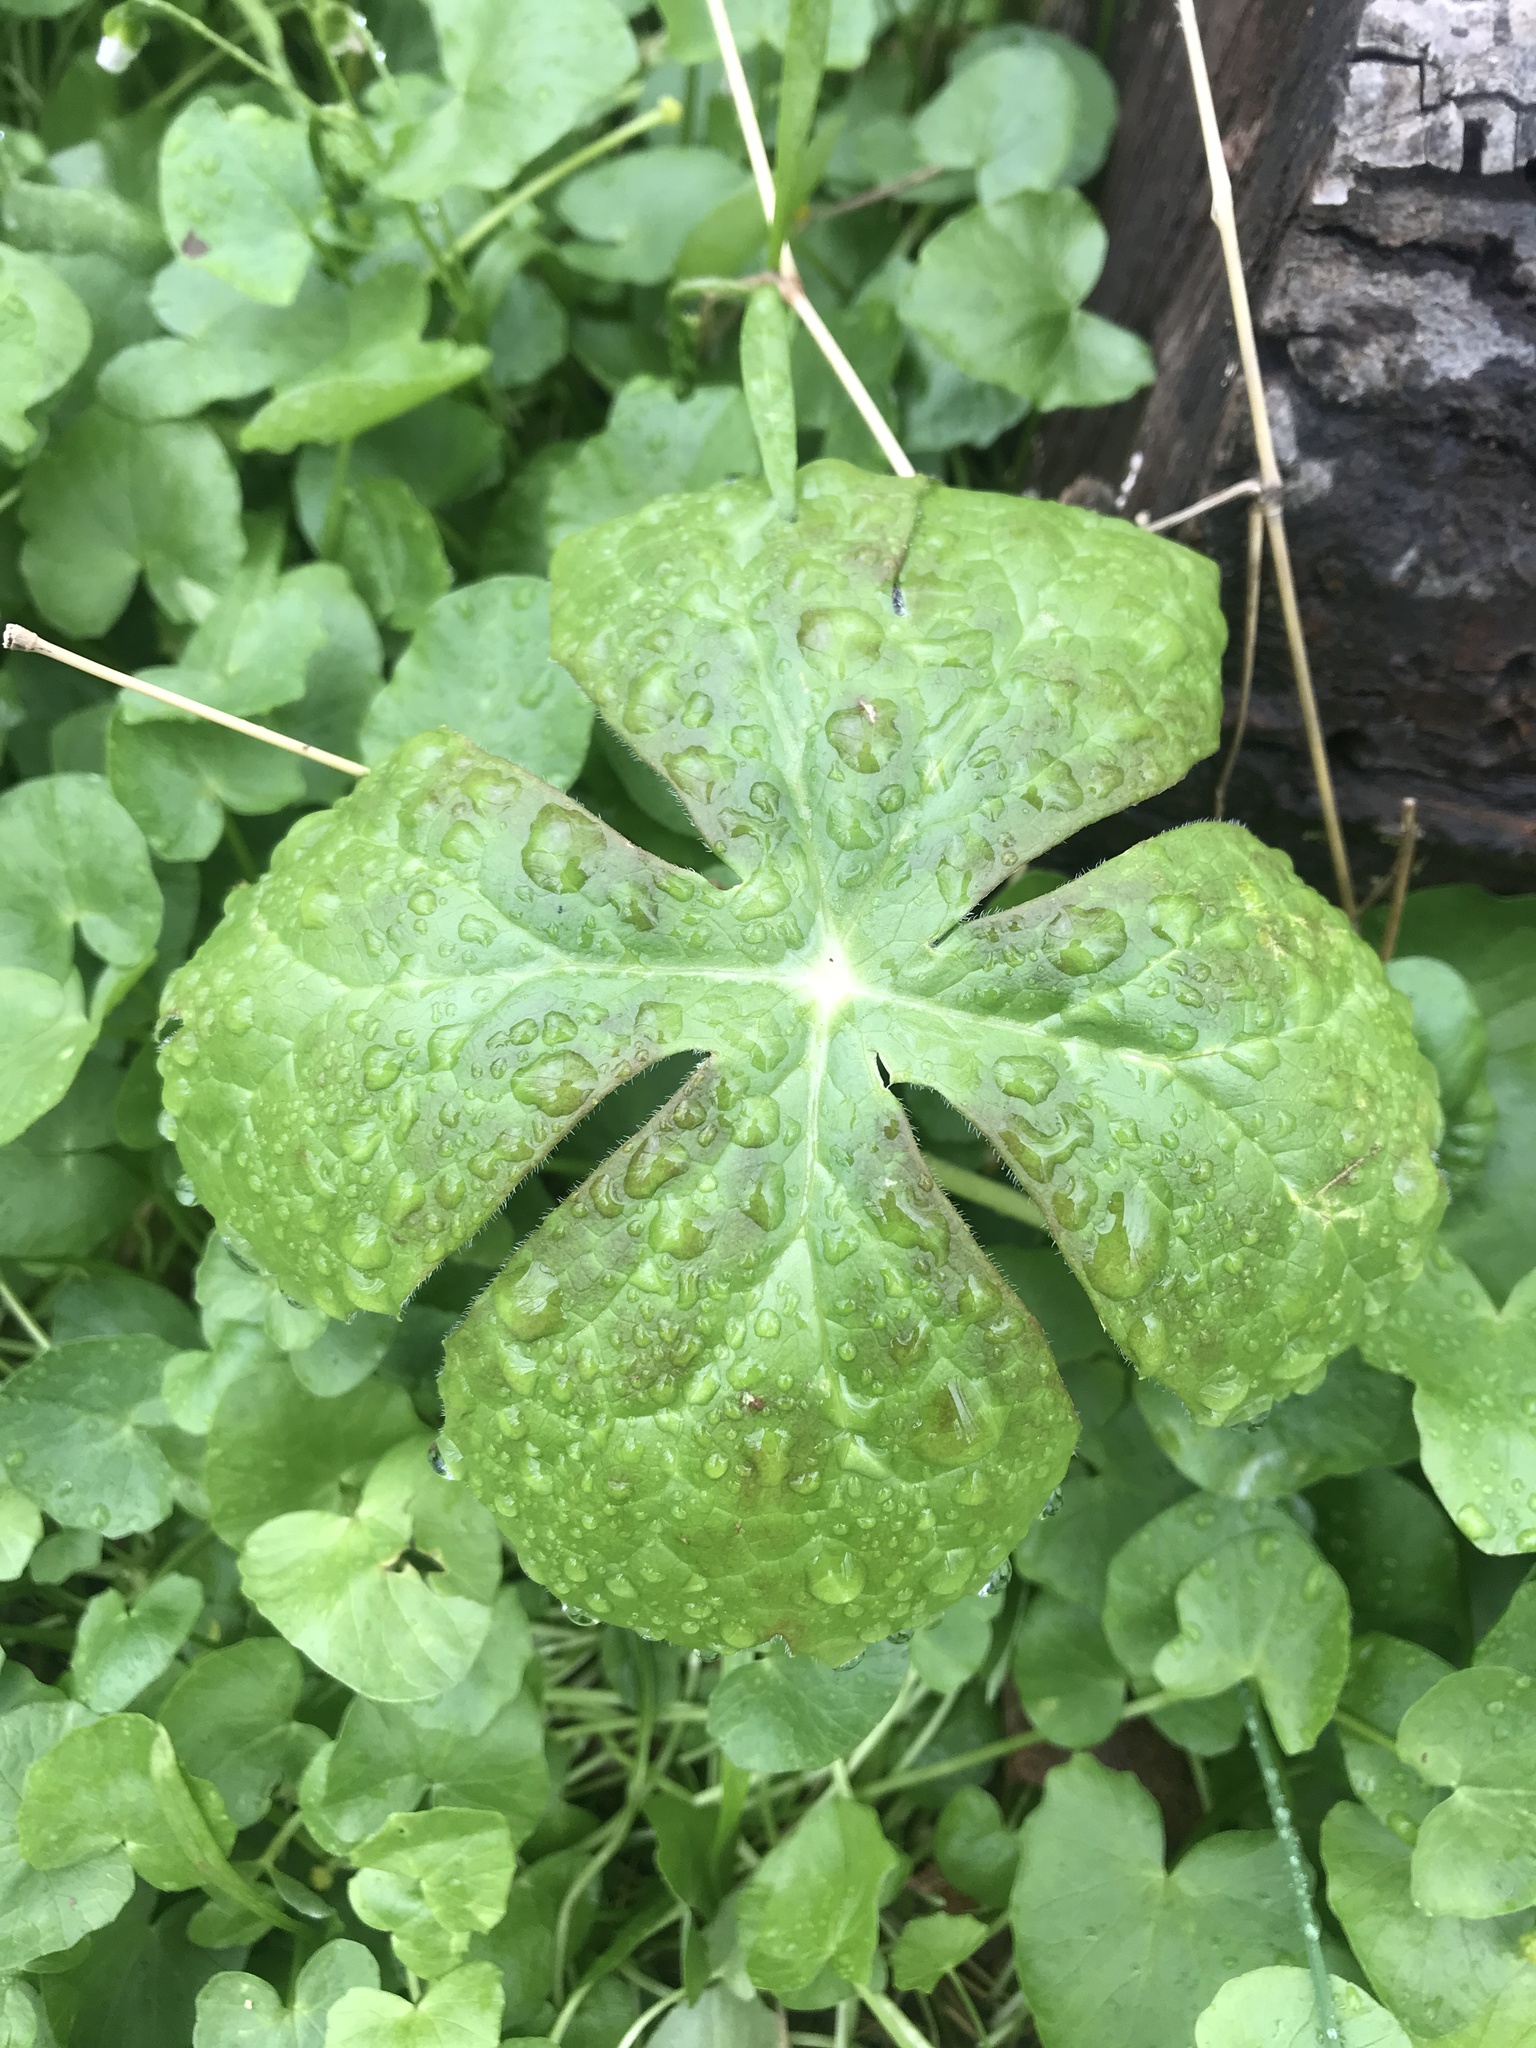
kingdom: Plantae
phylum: Tracheophyta
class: Magnoliopsida
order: Ranunculales
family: Berberidaceae
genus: Podophyllum
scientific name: Podophyllum peltatum
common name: Wild mandrake
